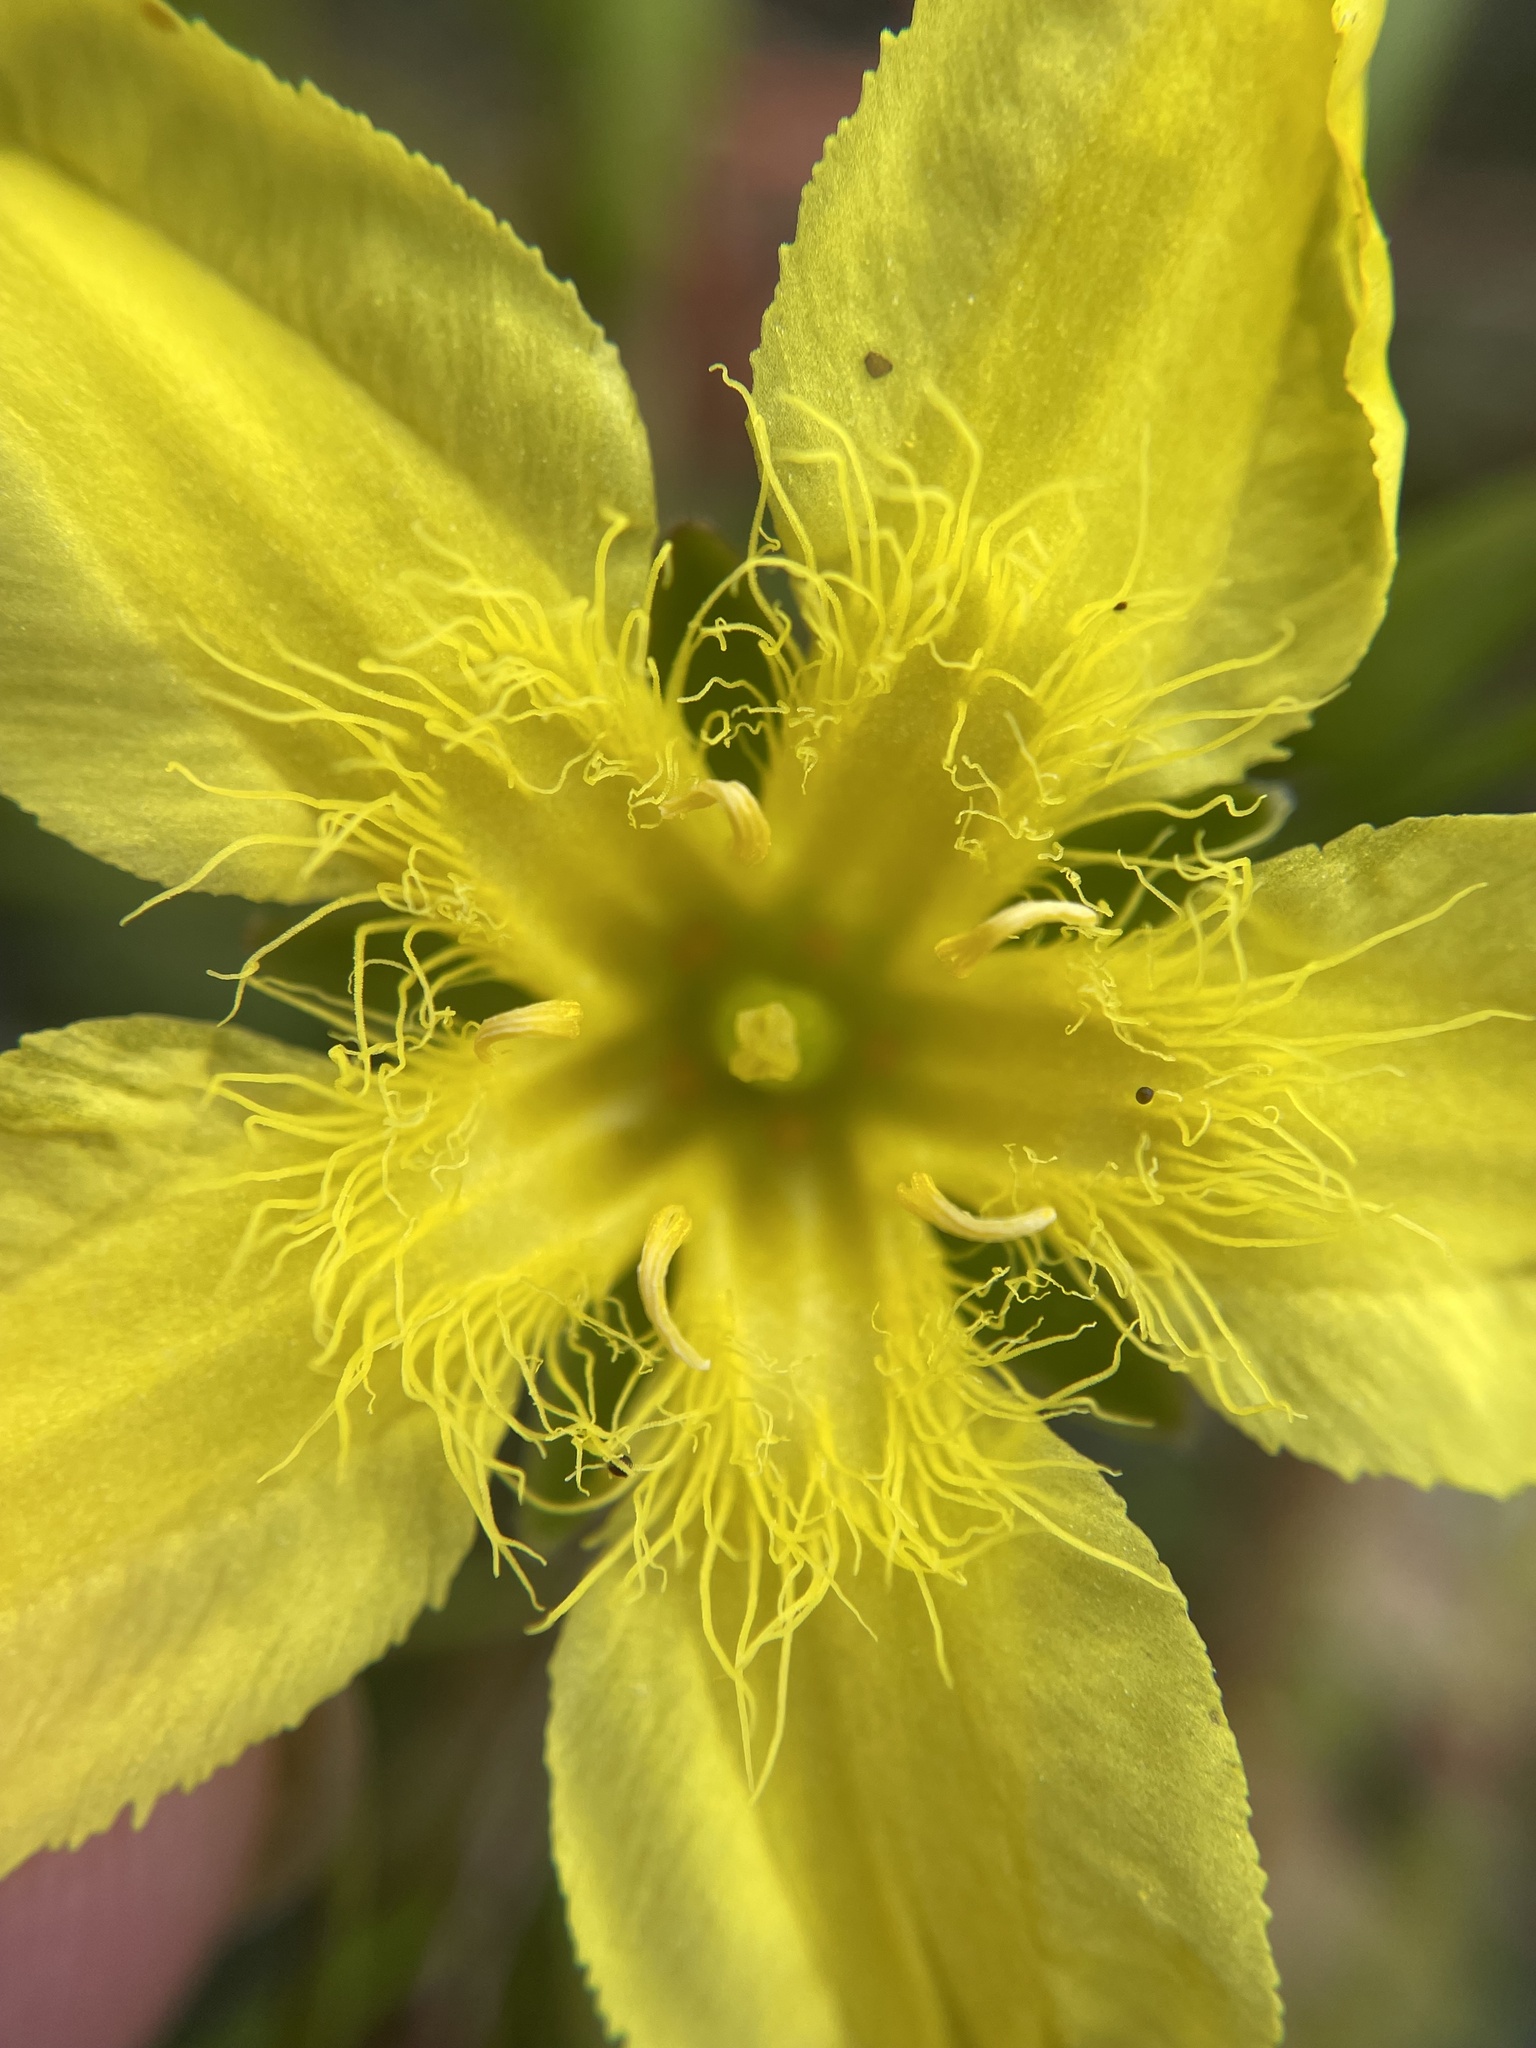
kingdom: Plantae
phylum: Tracheophyta
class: Magnoliopsida
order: Asterales
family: Menyanthaceae
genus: Ornduffia
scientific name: Ornduffia reniformis
